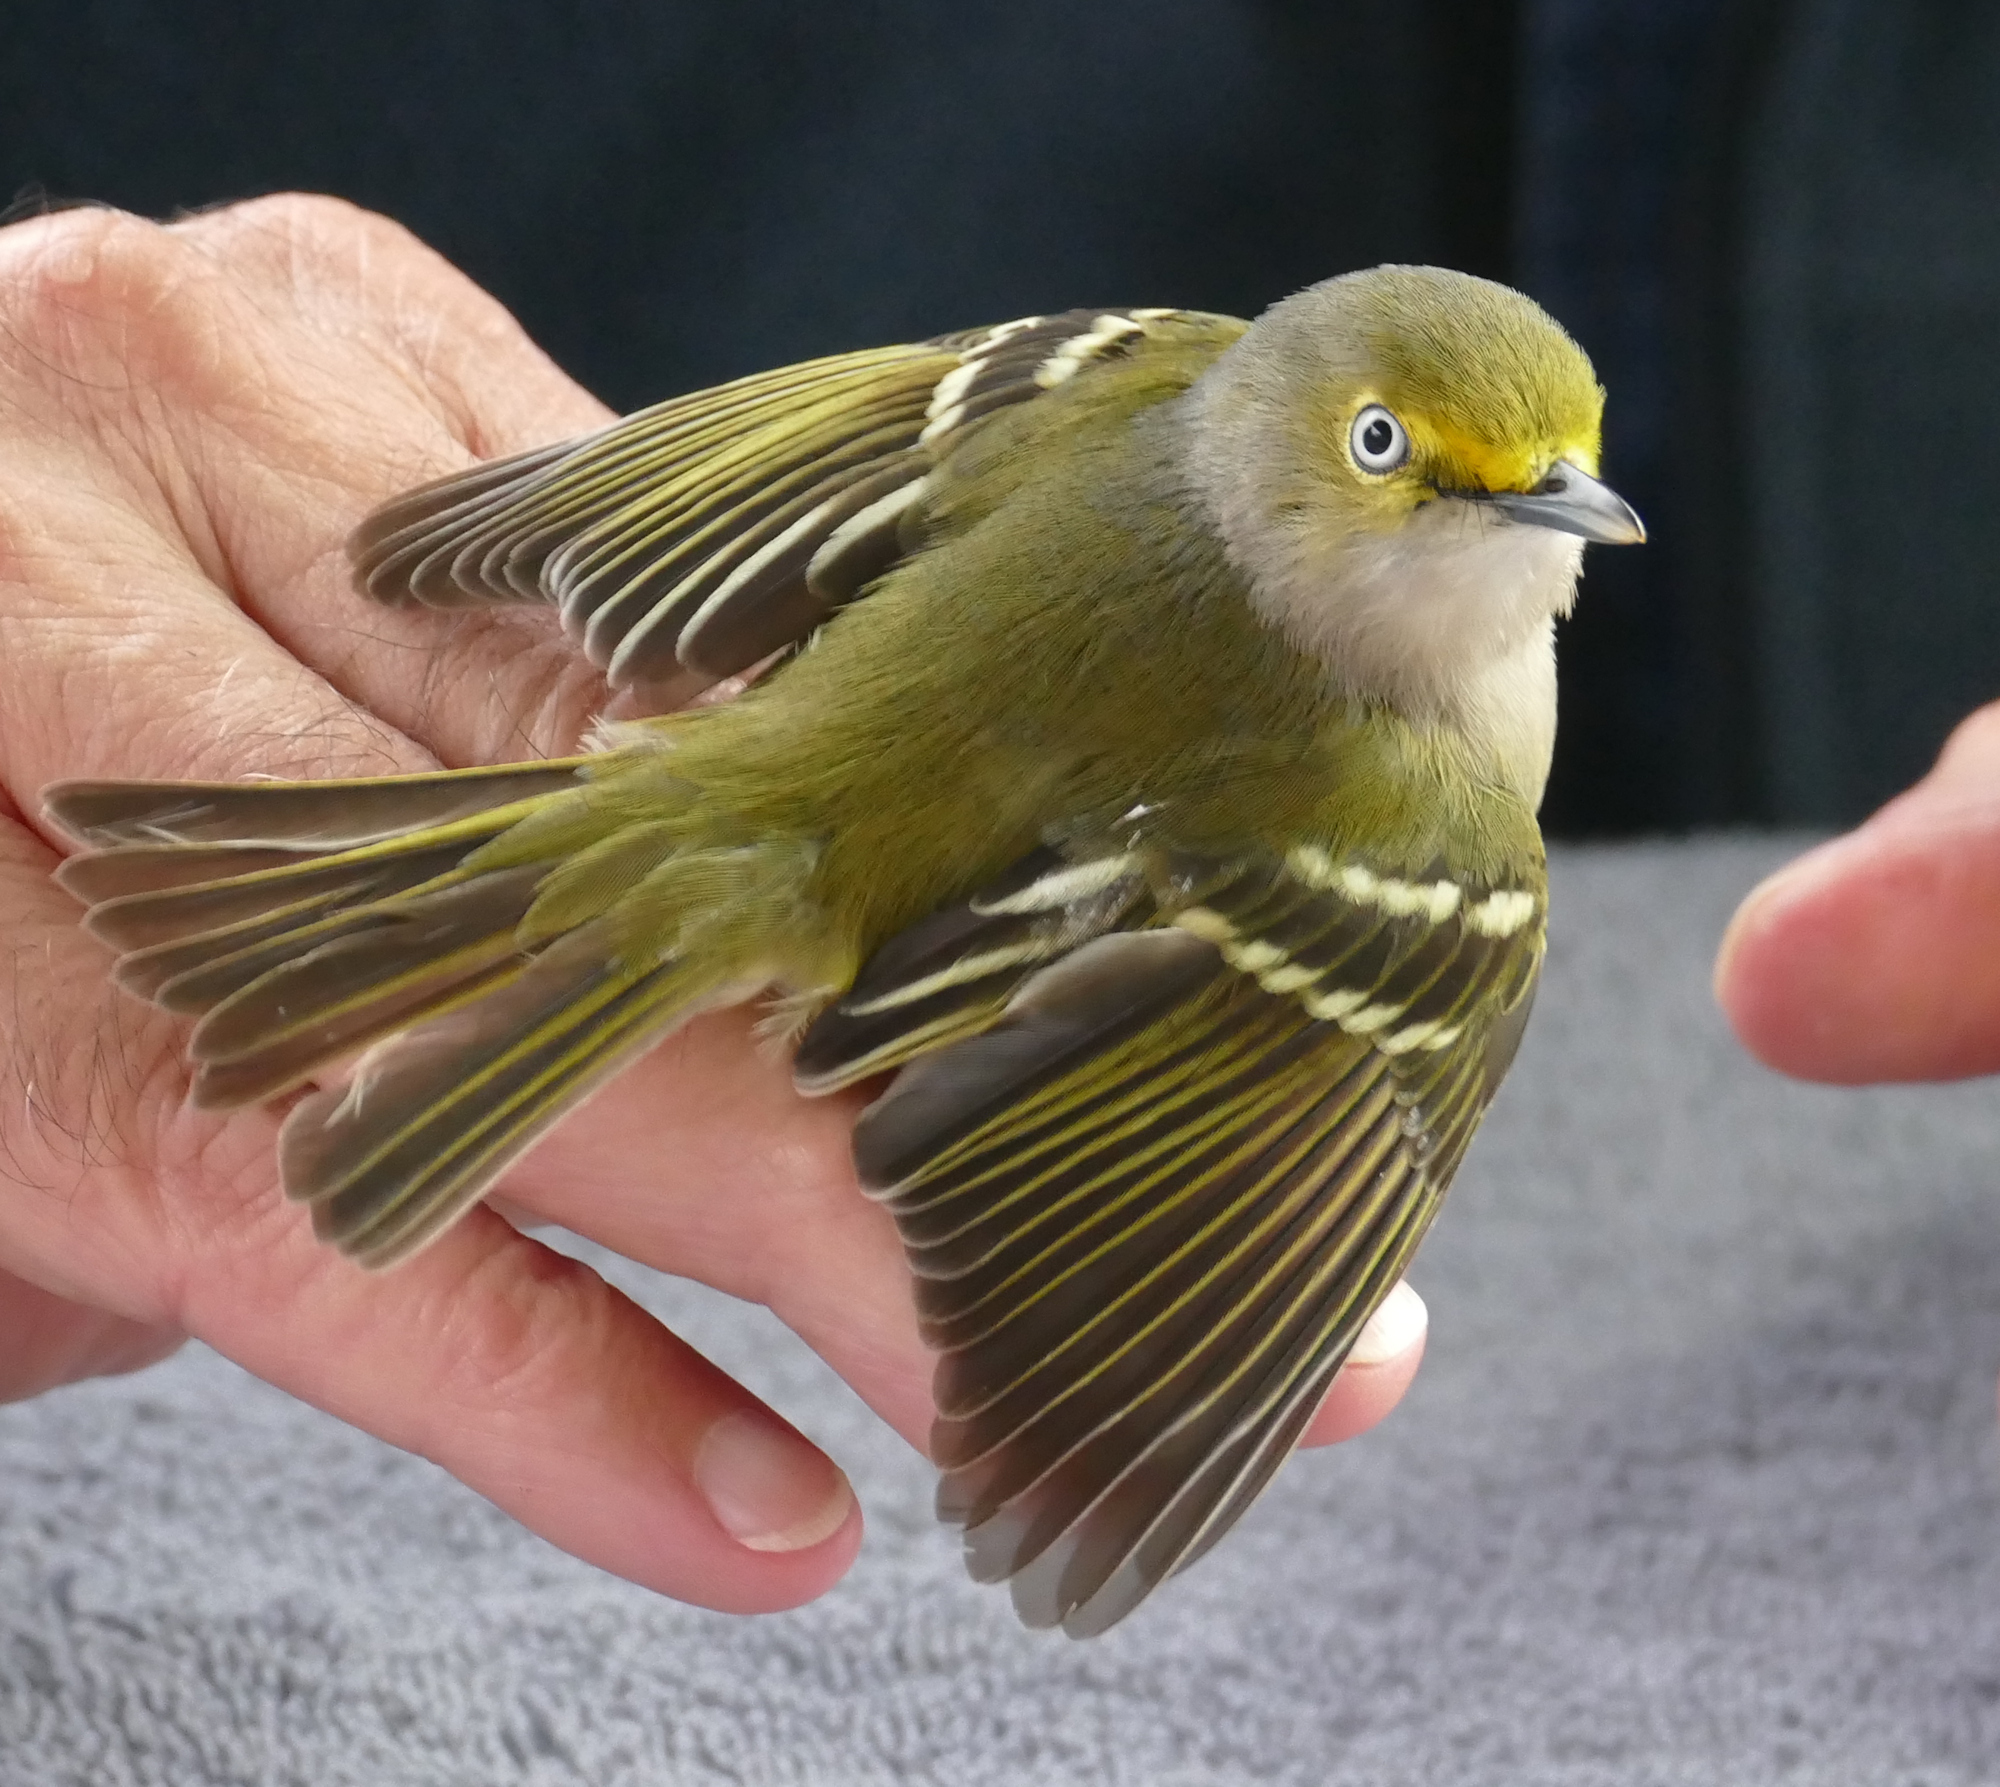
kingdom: Animalia
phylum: Chordata
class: Aves
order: Passeriformes
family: Vireonidae
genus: Vireo
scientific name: Vireo griseus
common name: White-eyed vireo
